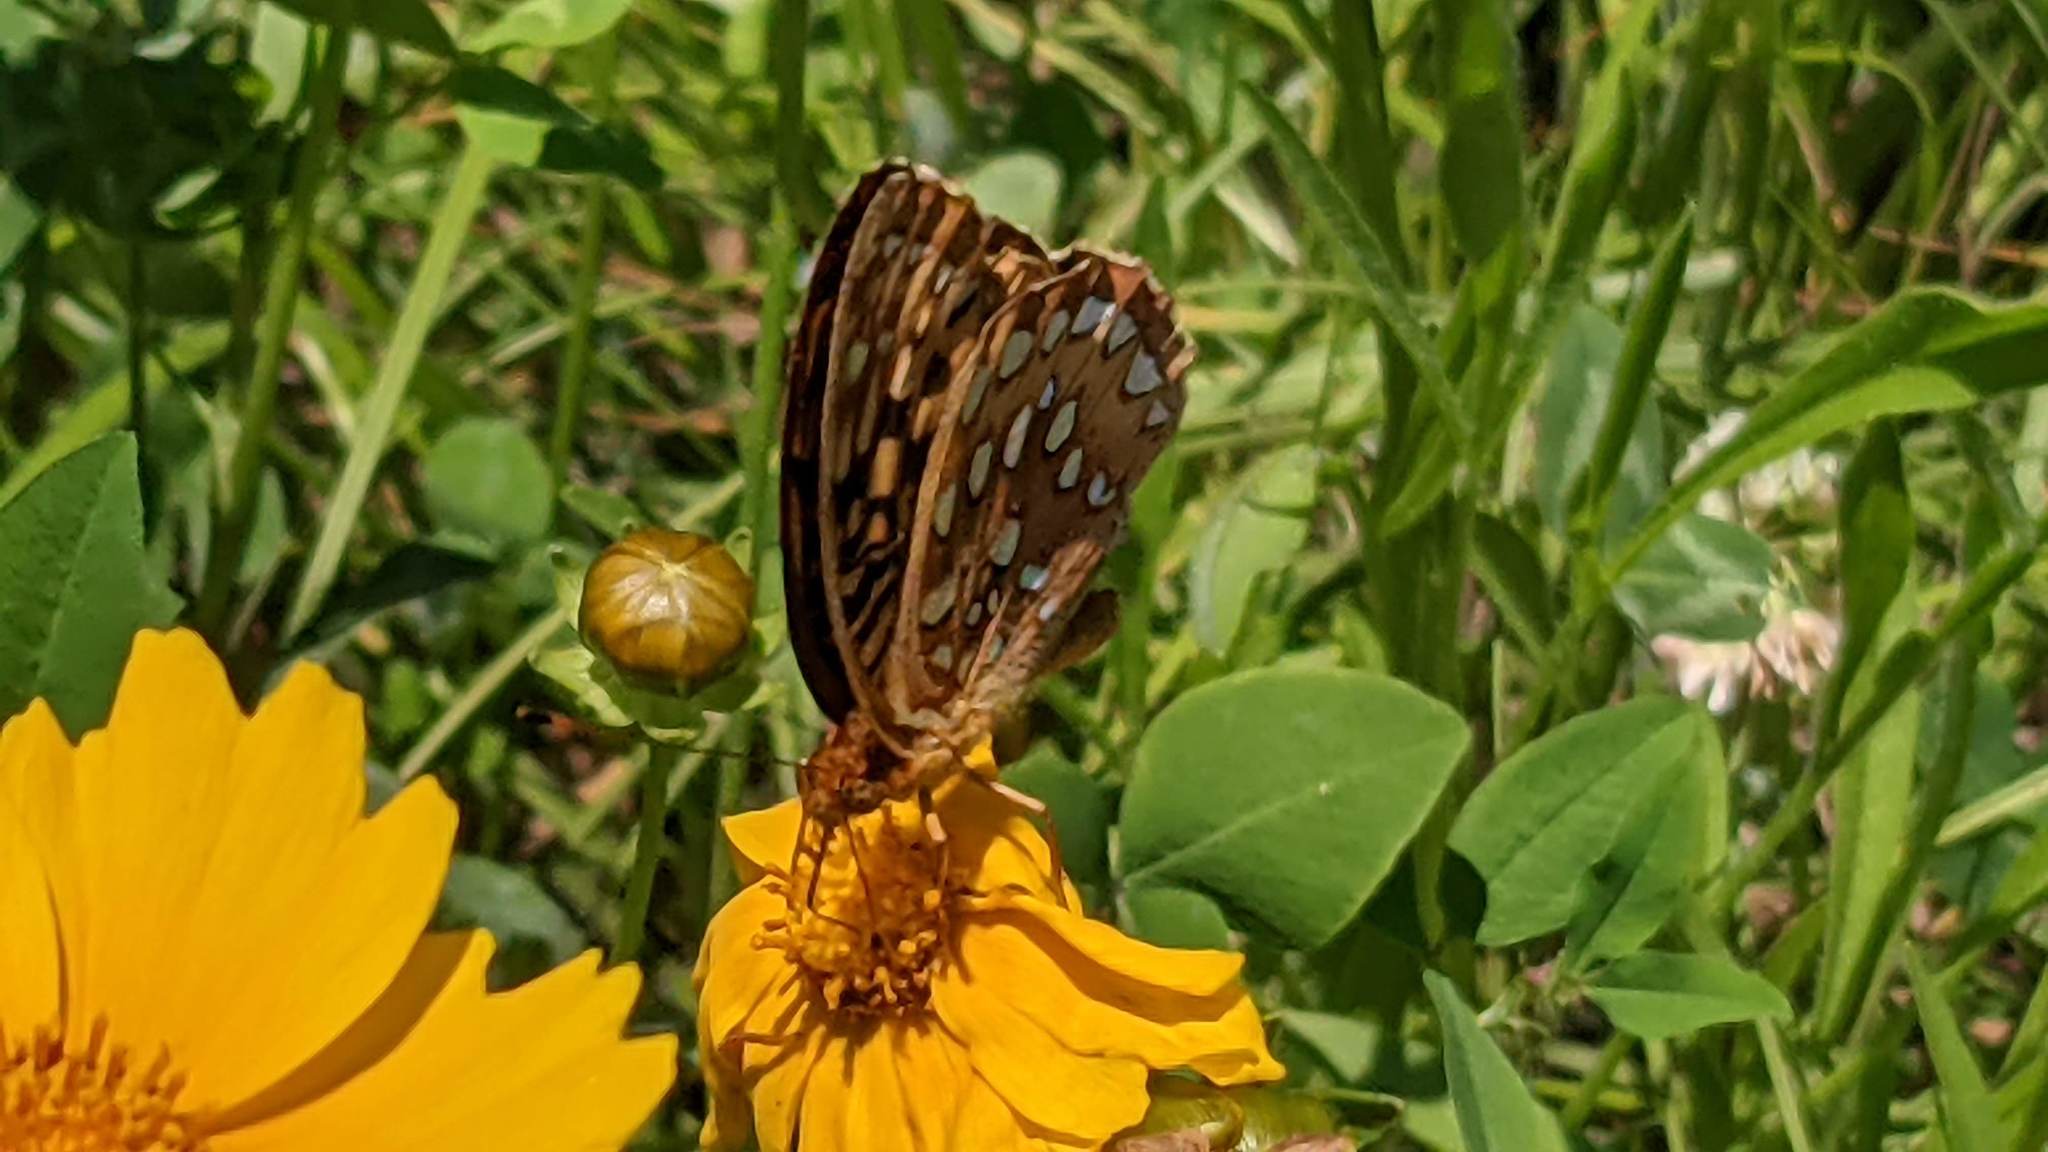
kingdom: Animalia
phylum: Arthropoda
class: Insecta
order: Lepidoptera
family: Nymphalidae
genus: Speyeria
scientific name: Speyeria cybele
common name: Great spangled fritillary
